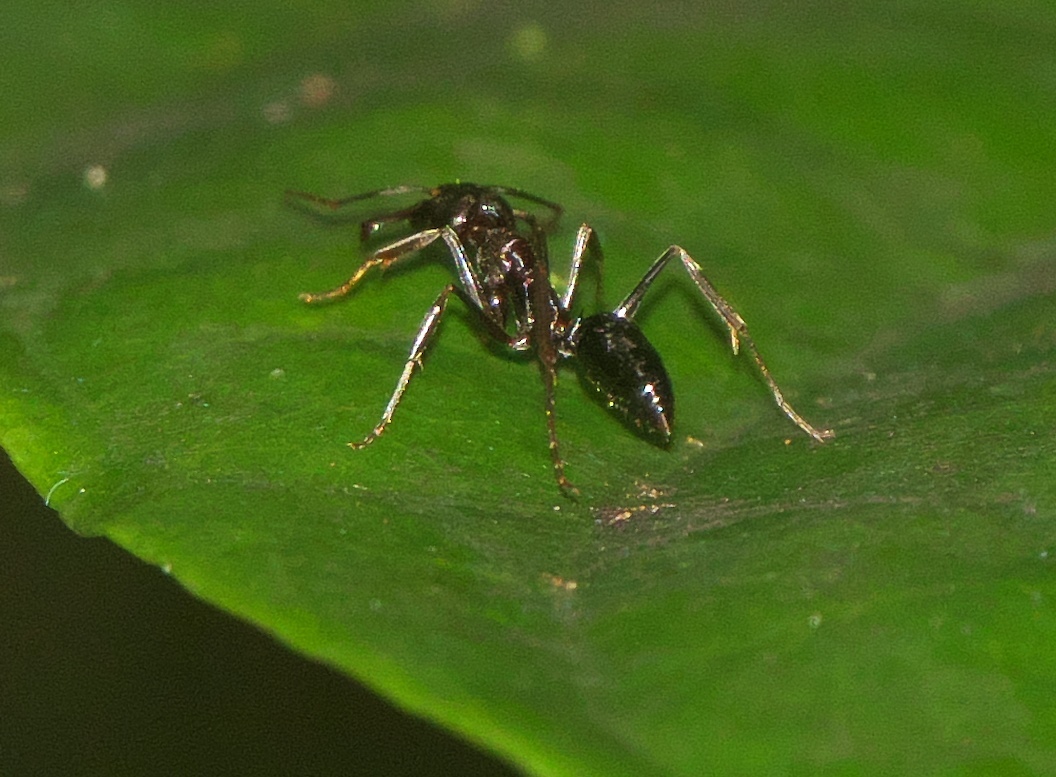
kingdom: Animalia
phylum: Arthropoda
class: Insecta
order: Hymenoptera
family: Formicidae
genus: Odontomachus
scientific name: Odontomachus simillimus
